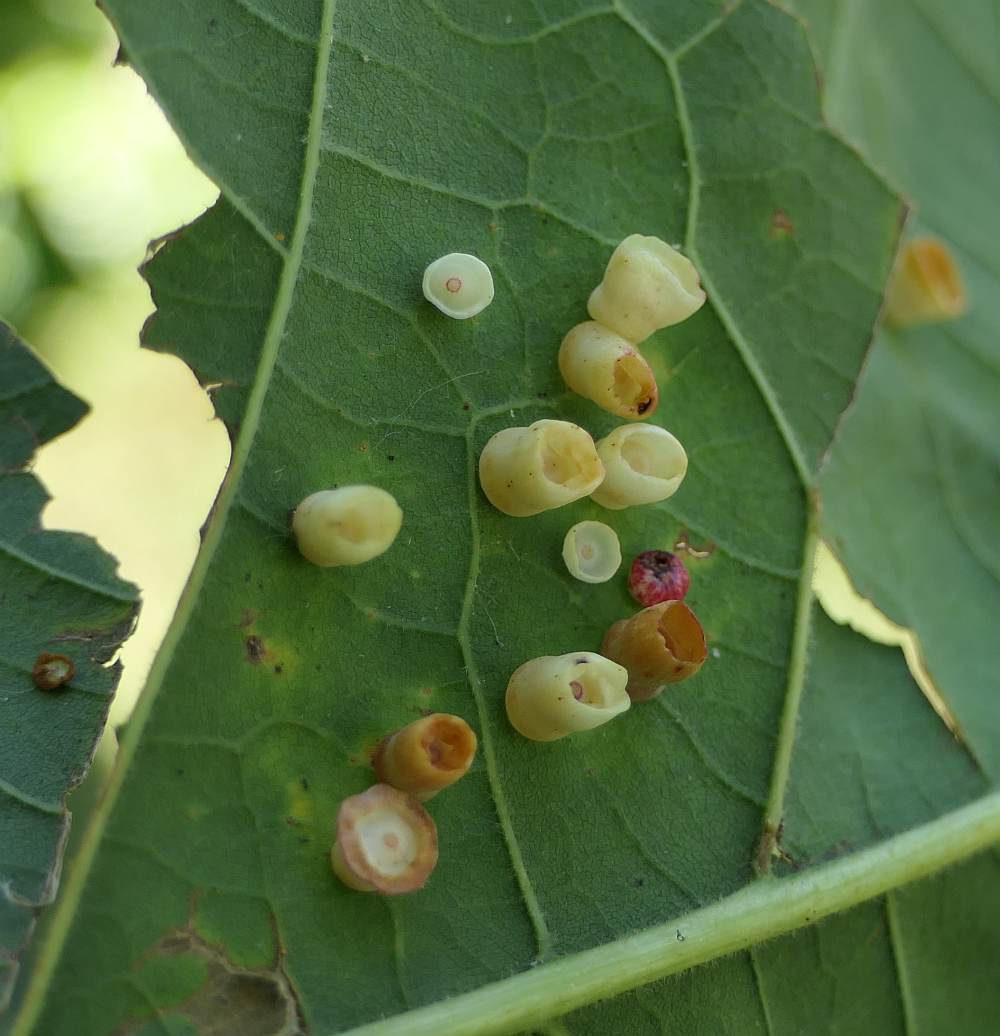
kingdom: Animalia
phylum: Arthropoda
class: Insecta
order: Hymenoptera
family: Cynipidae
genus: Phylloteras
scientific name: Phylloteras
